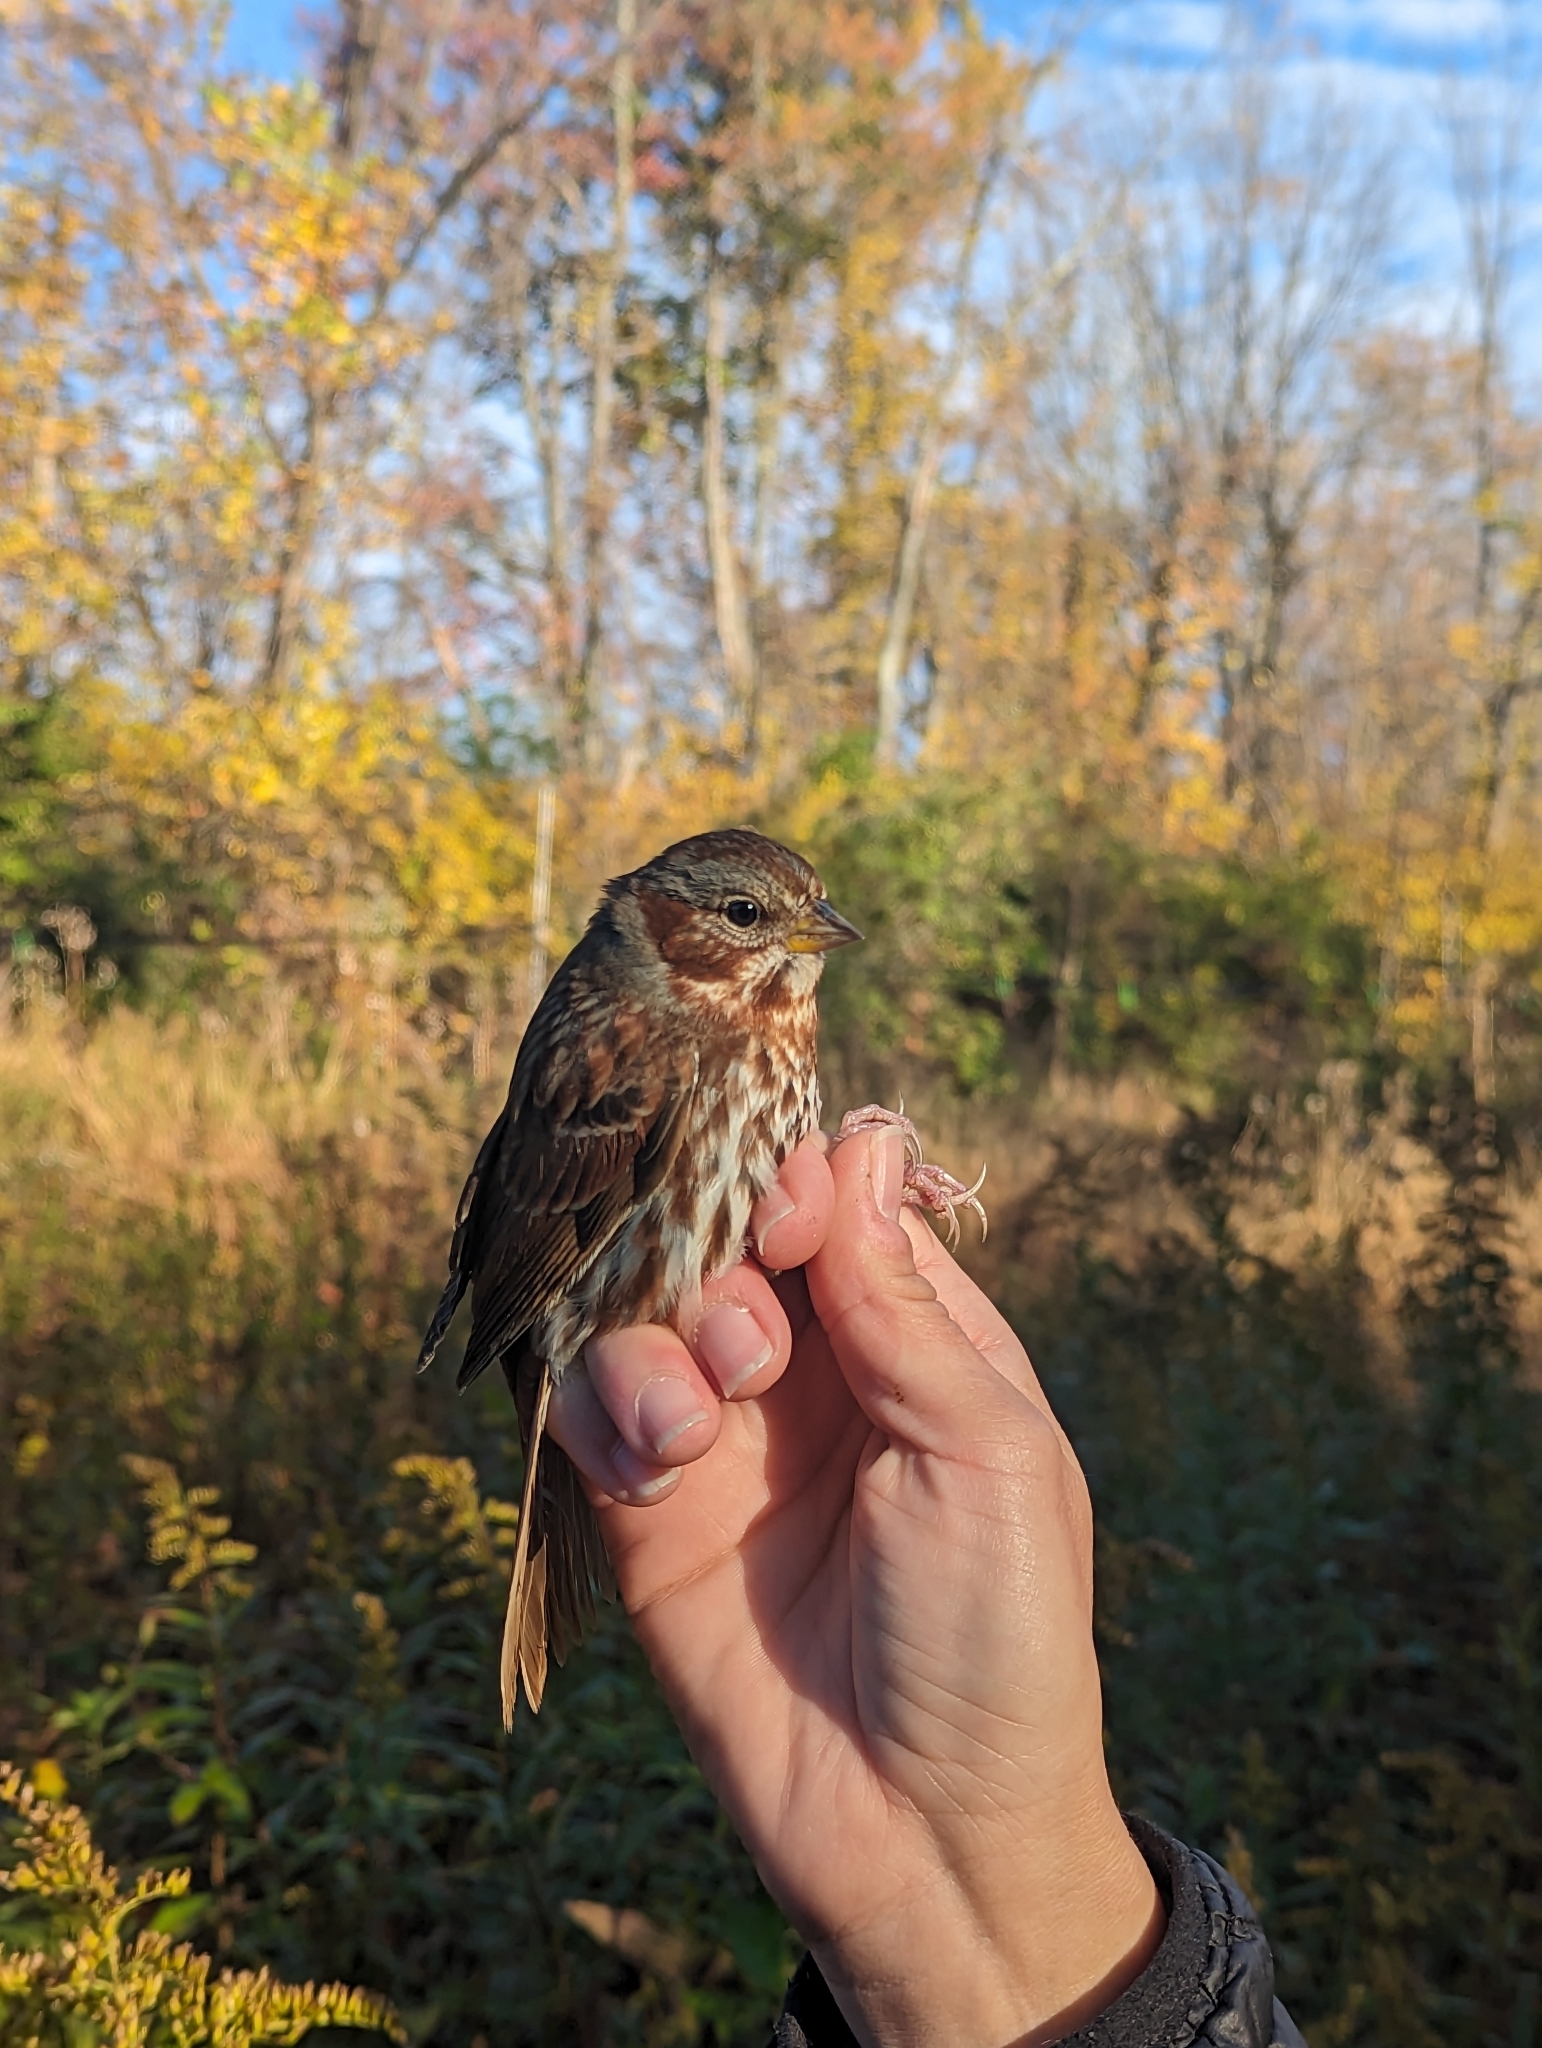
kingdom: Animalia
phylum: Chordata
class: Aves
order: Passeriformes
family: Passerellidae
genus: Passerella
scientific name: Passerella iliaca
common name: Fox sparrow
